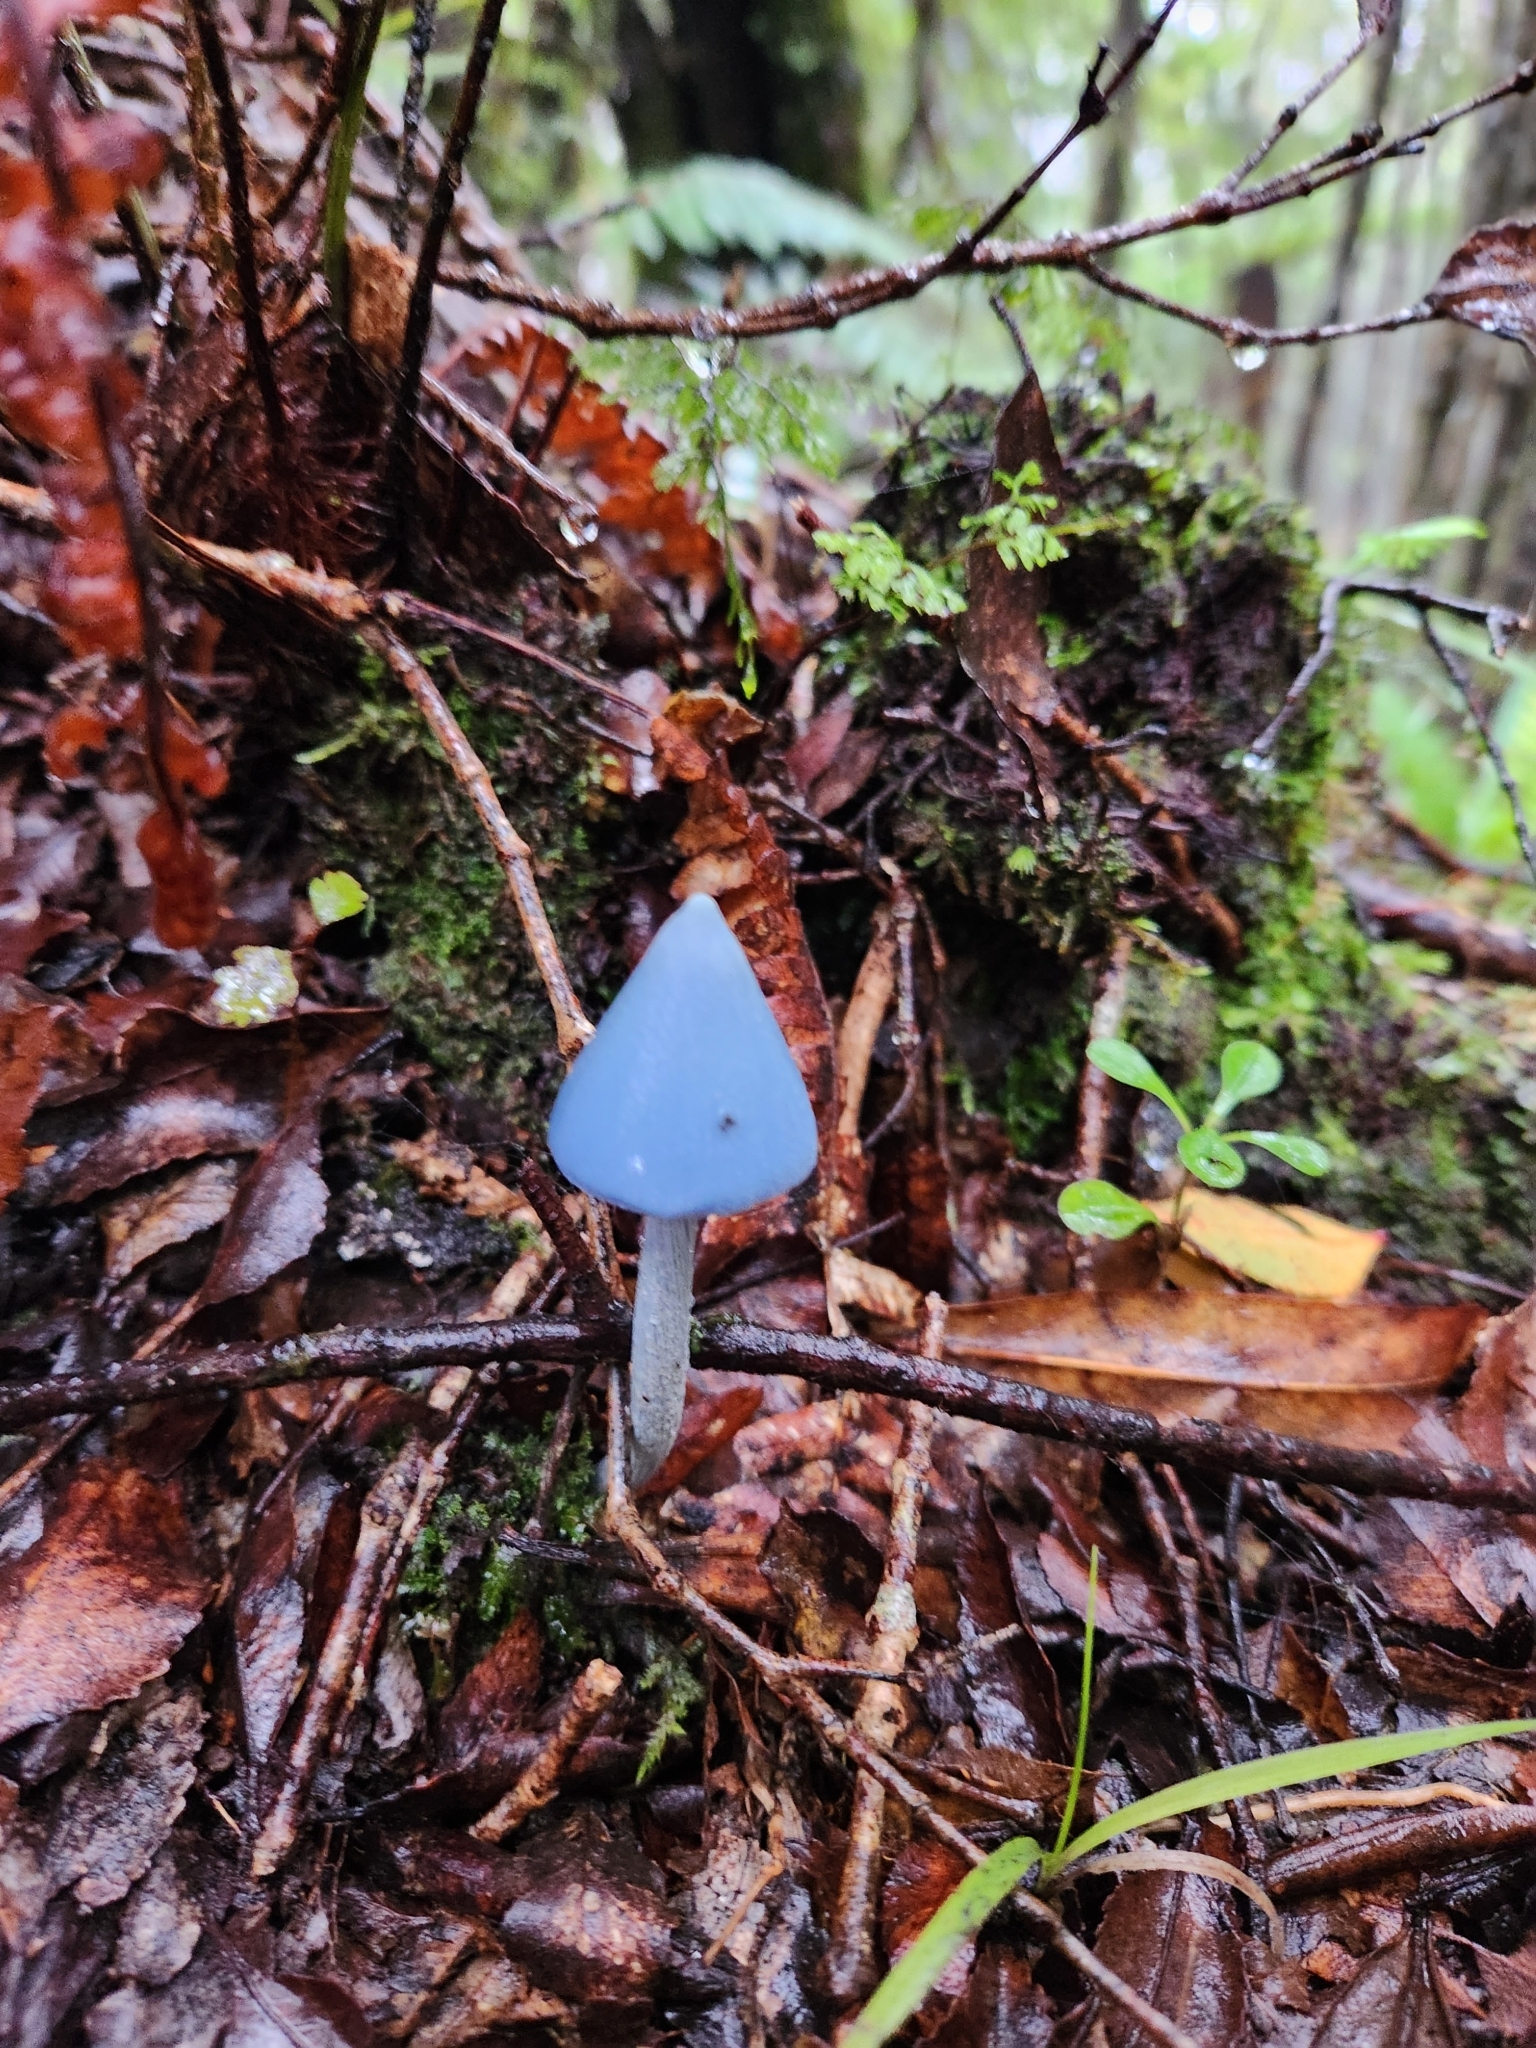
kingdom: Fungi
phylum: Basidiomycota
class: Agaricomycetes
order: Agaricales
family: Entolomataceae
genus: Entoloma
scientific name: Entoloma hochstetteri
